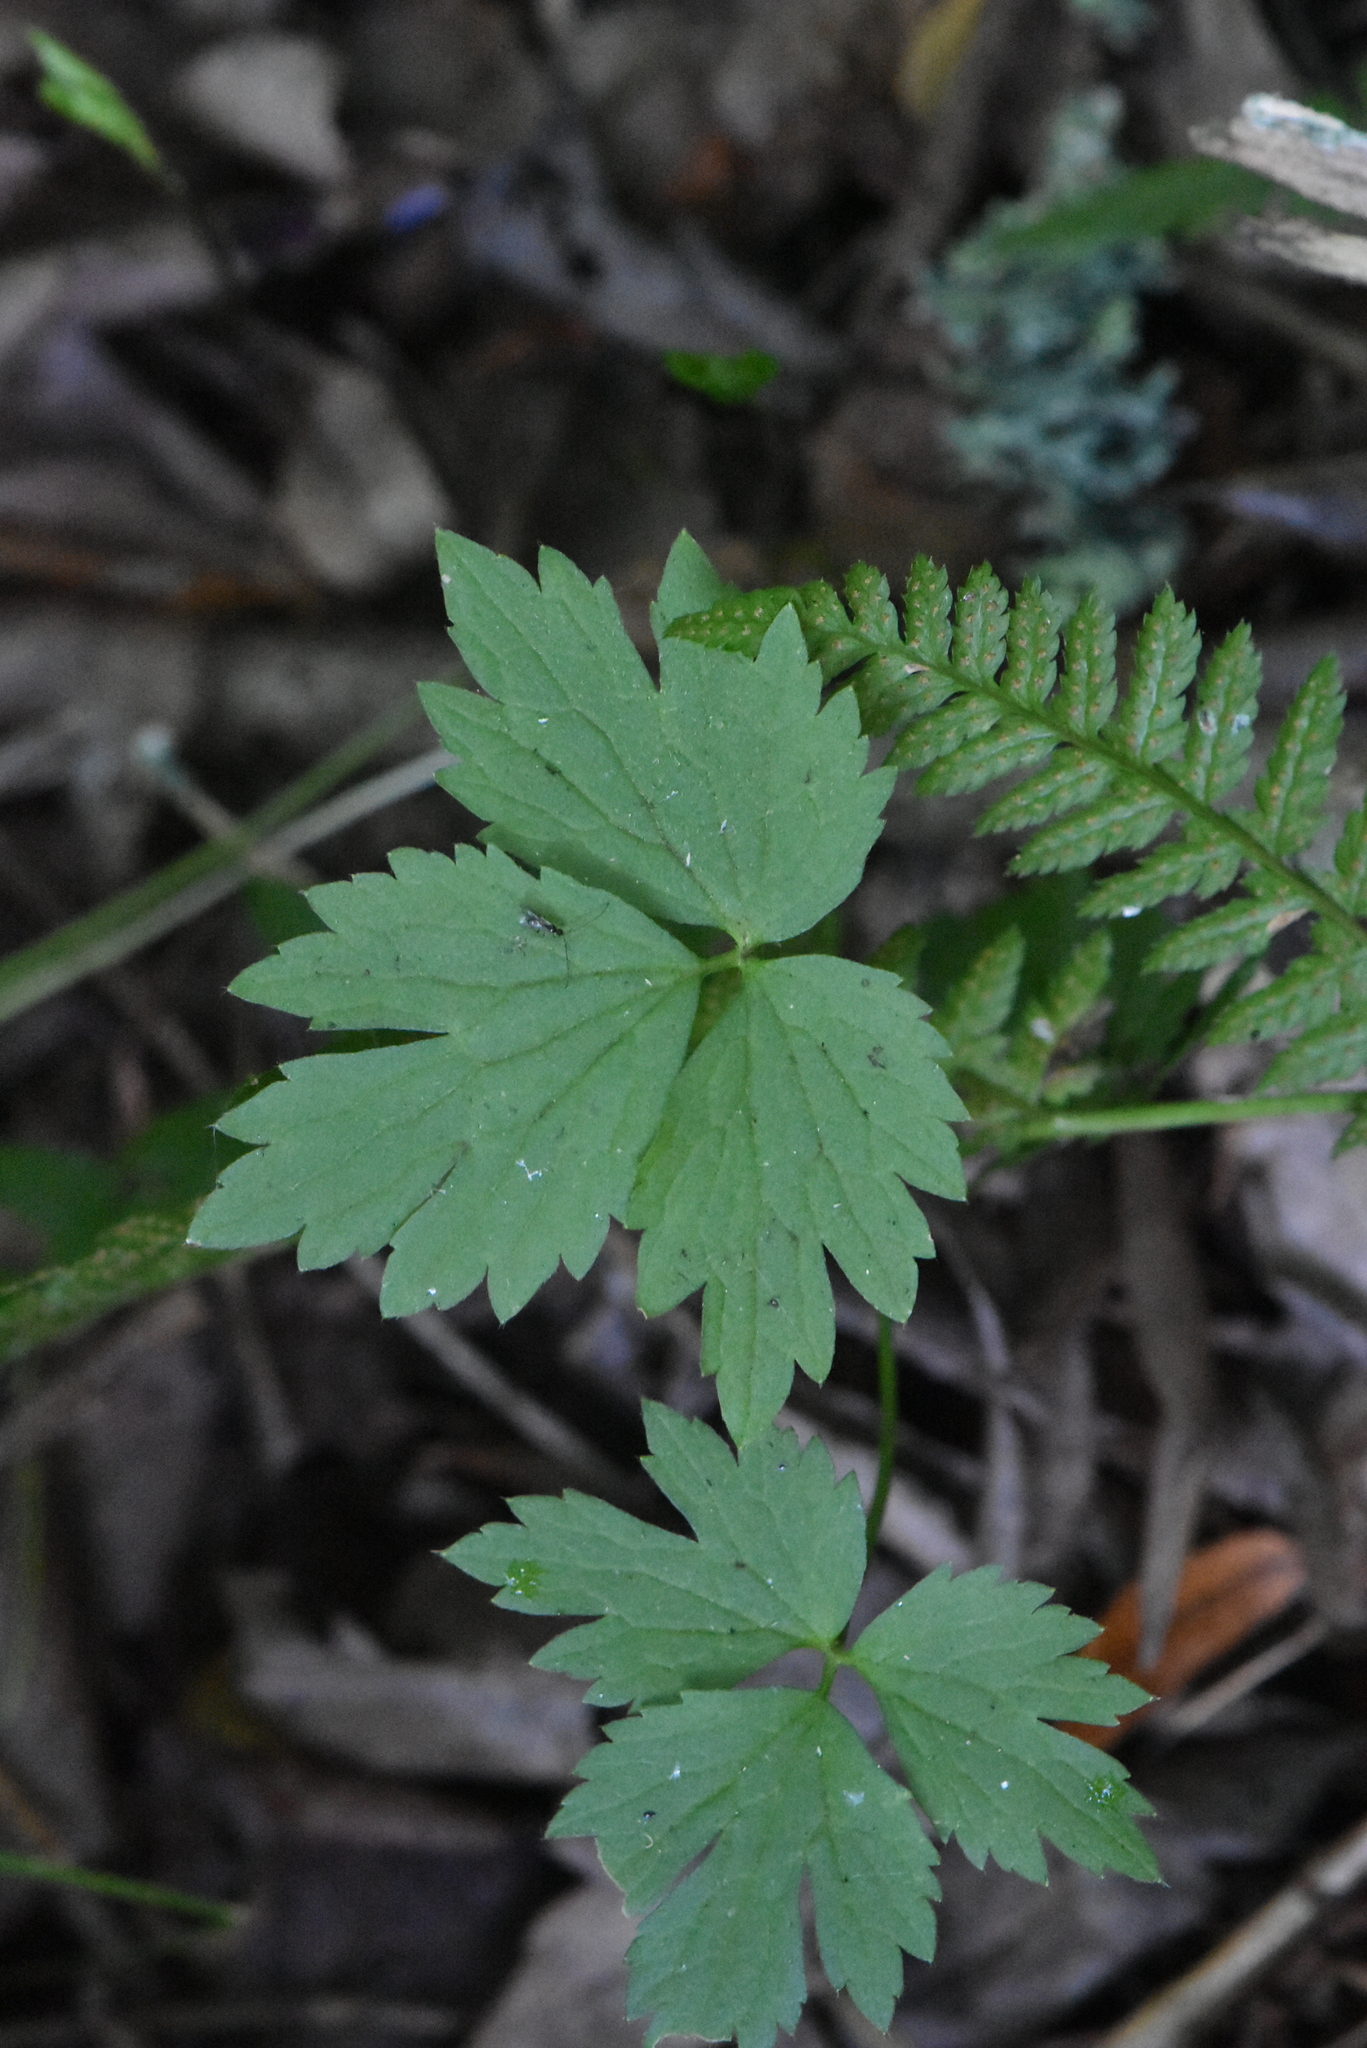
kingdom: Plantae
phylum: Tracheophyta
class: Magnoliopsida
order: Ranunculales
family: Ranunculaceae
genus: Ranunculus
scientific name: Ranunculus repens
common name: Creeping buttercup
